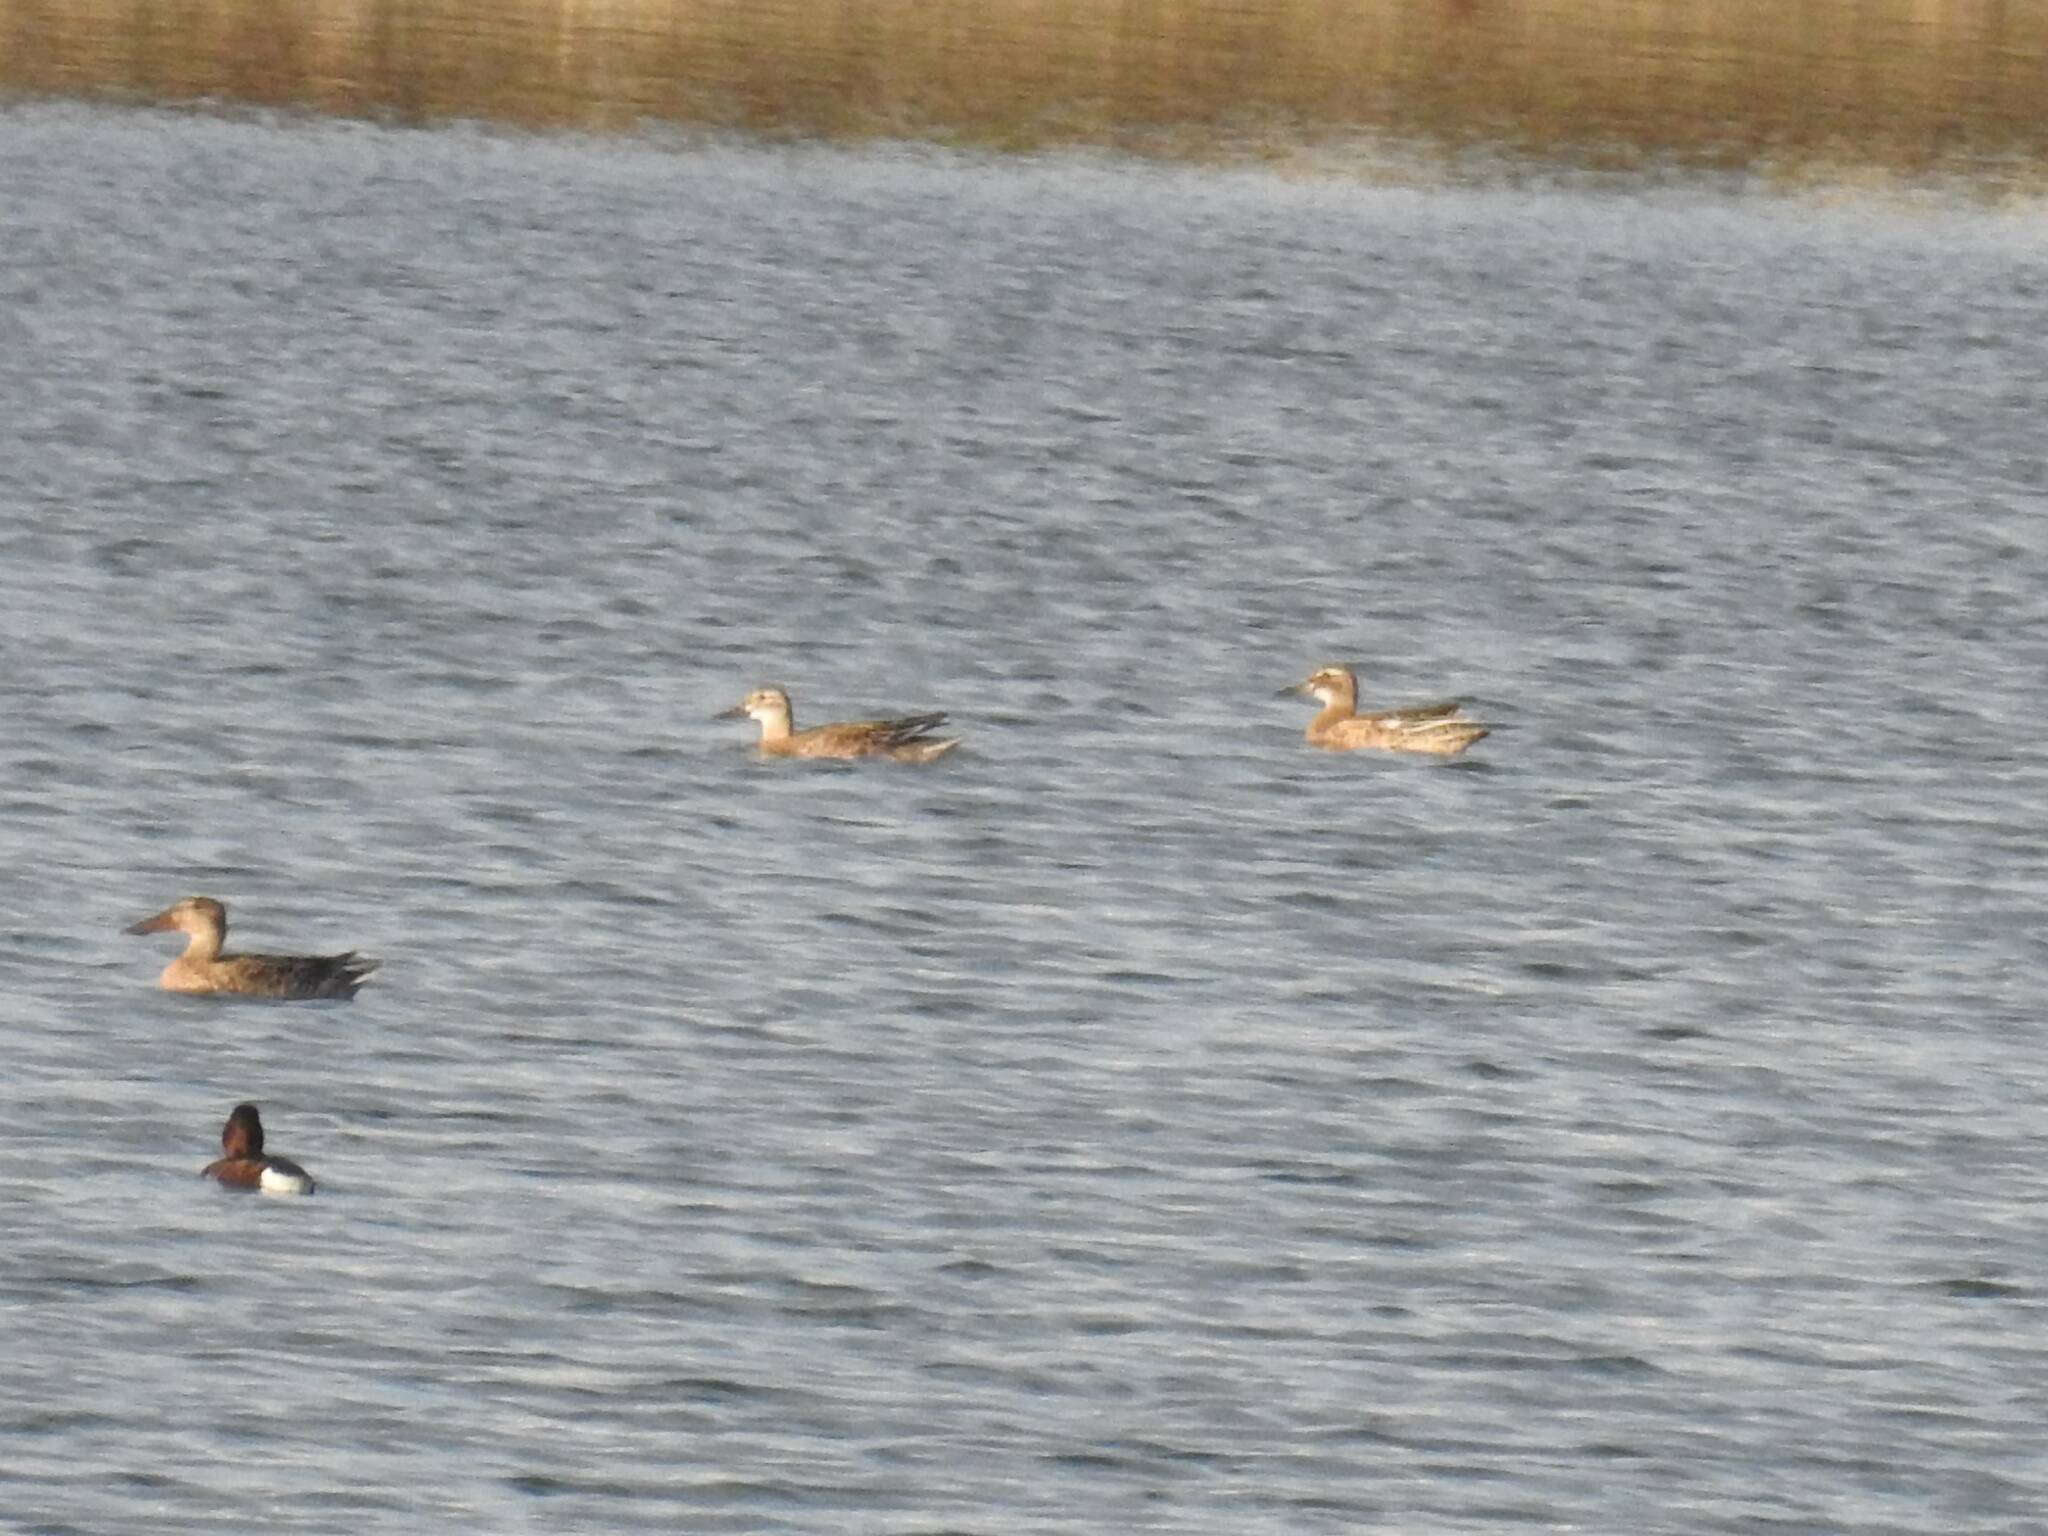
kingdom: Animalia
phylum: Chordata
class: Aves
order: Anseriformes
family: Anatidae
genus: Spatula
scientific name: Spatula querquedula
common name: Garganey
